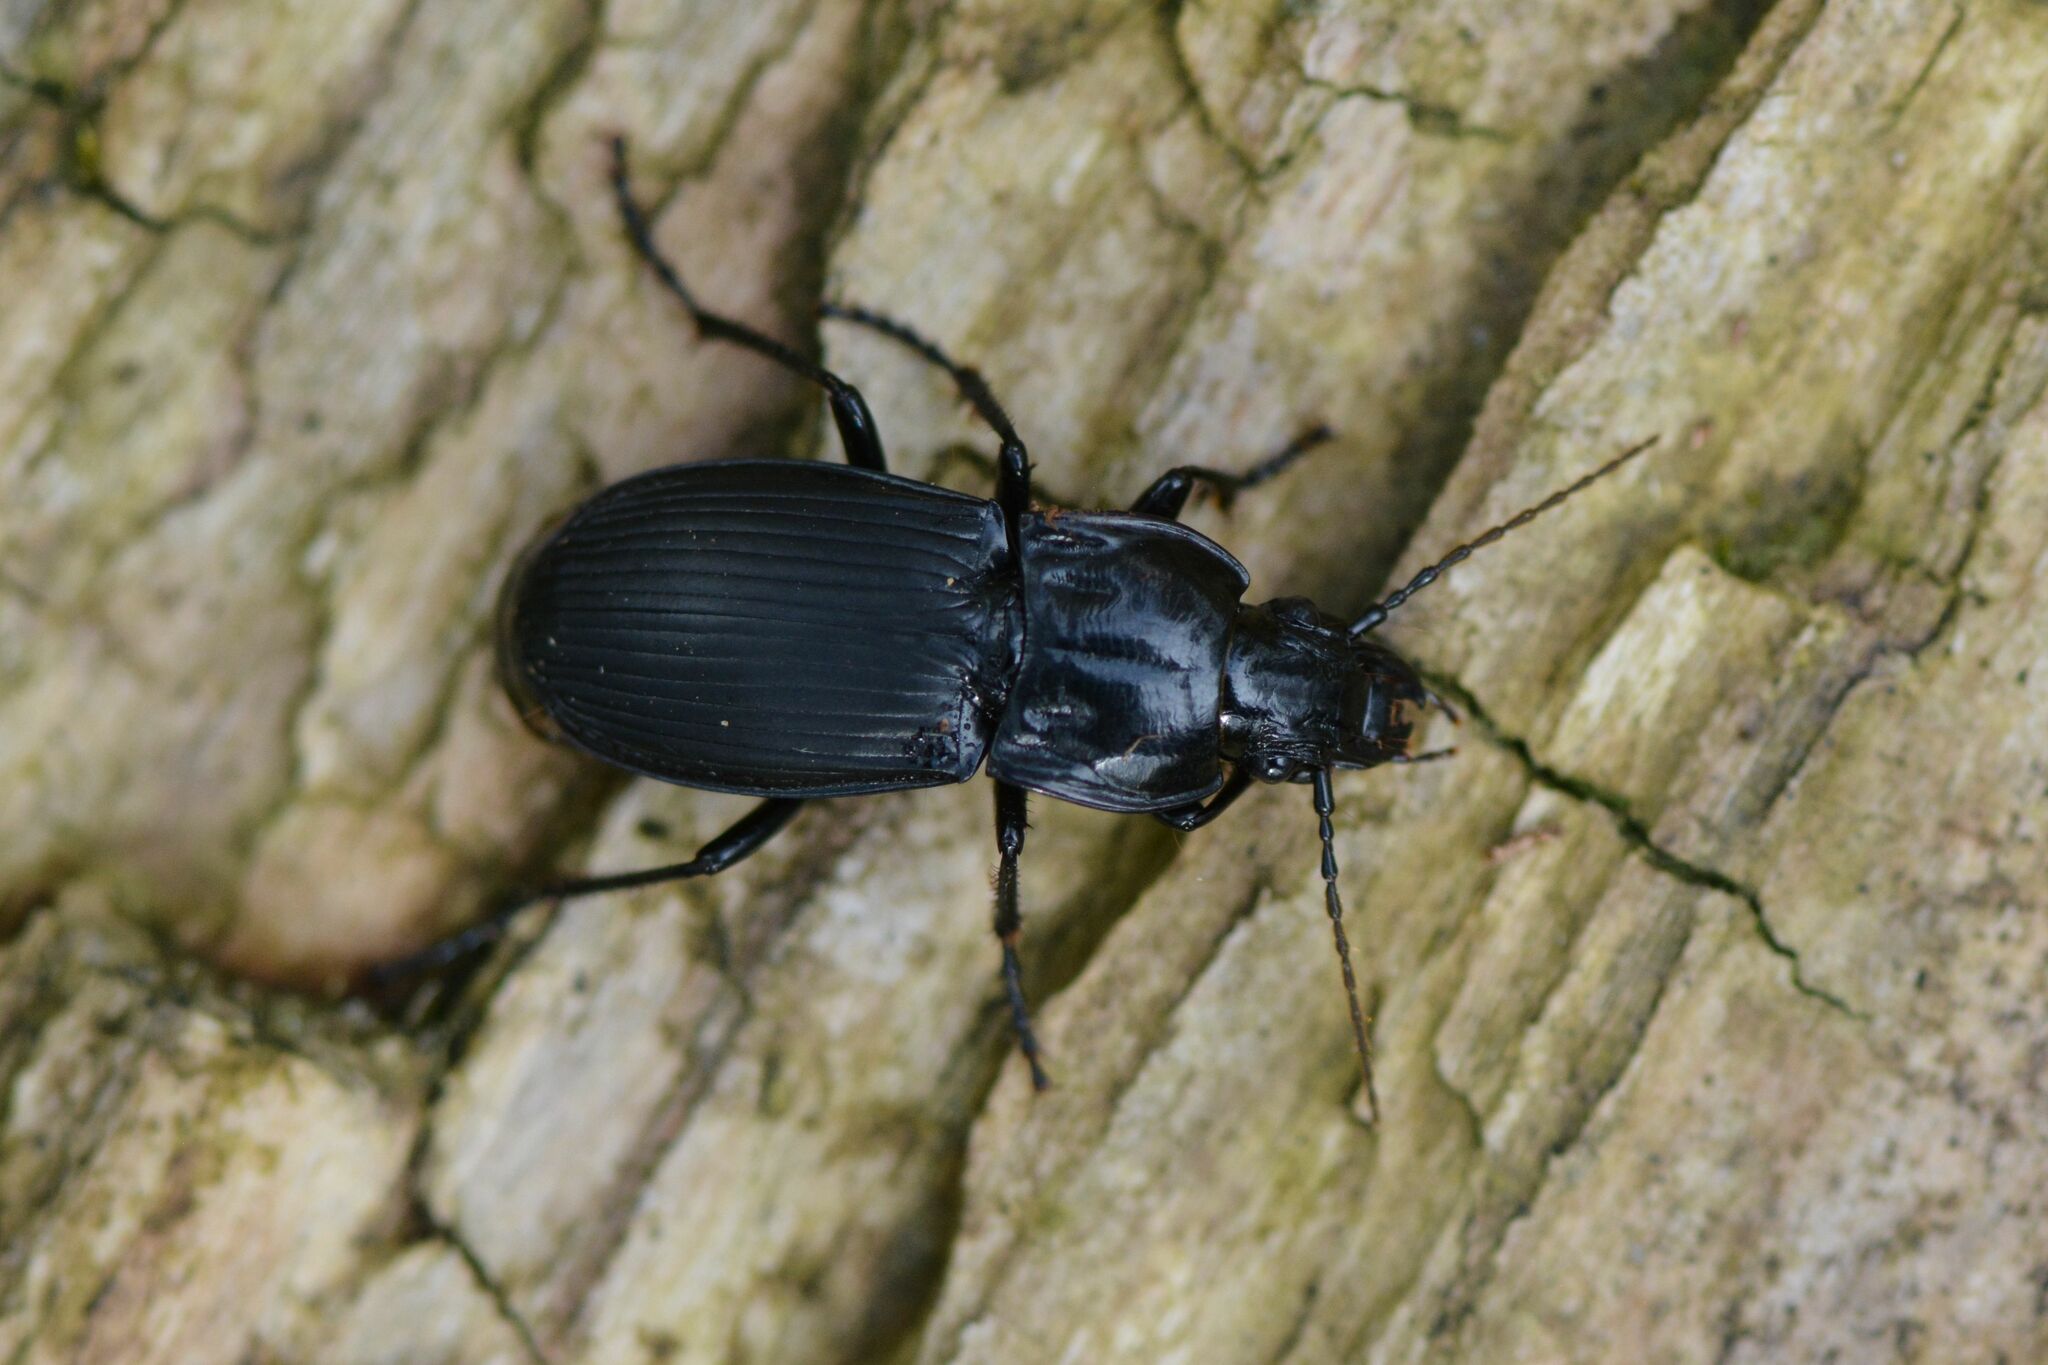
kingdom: Animalia
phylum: Arthropoda
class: Insecta
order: Coleoptera
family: Carabidae
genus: Abax
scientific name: Abax parallelepipedus
